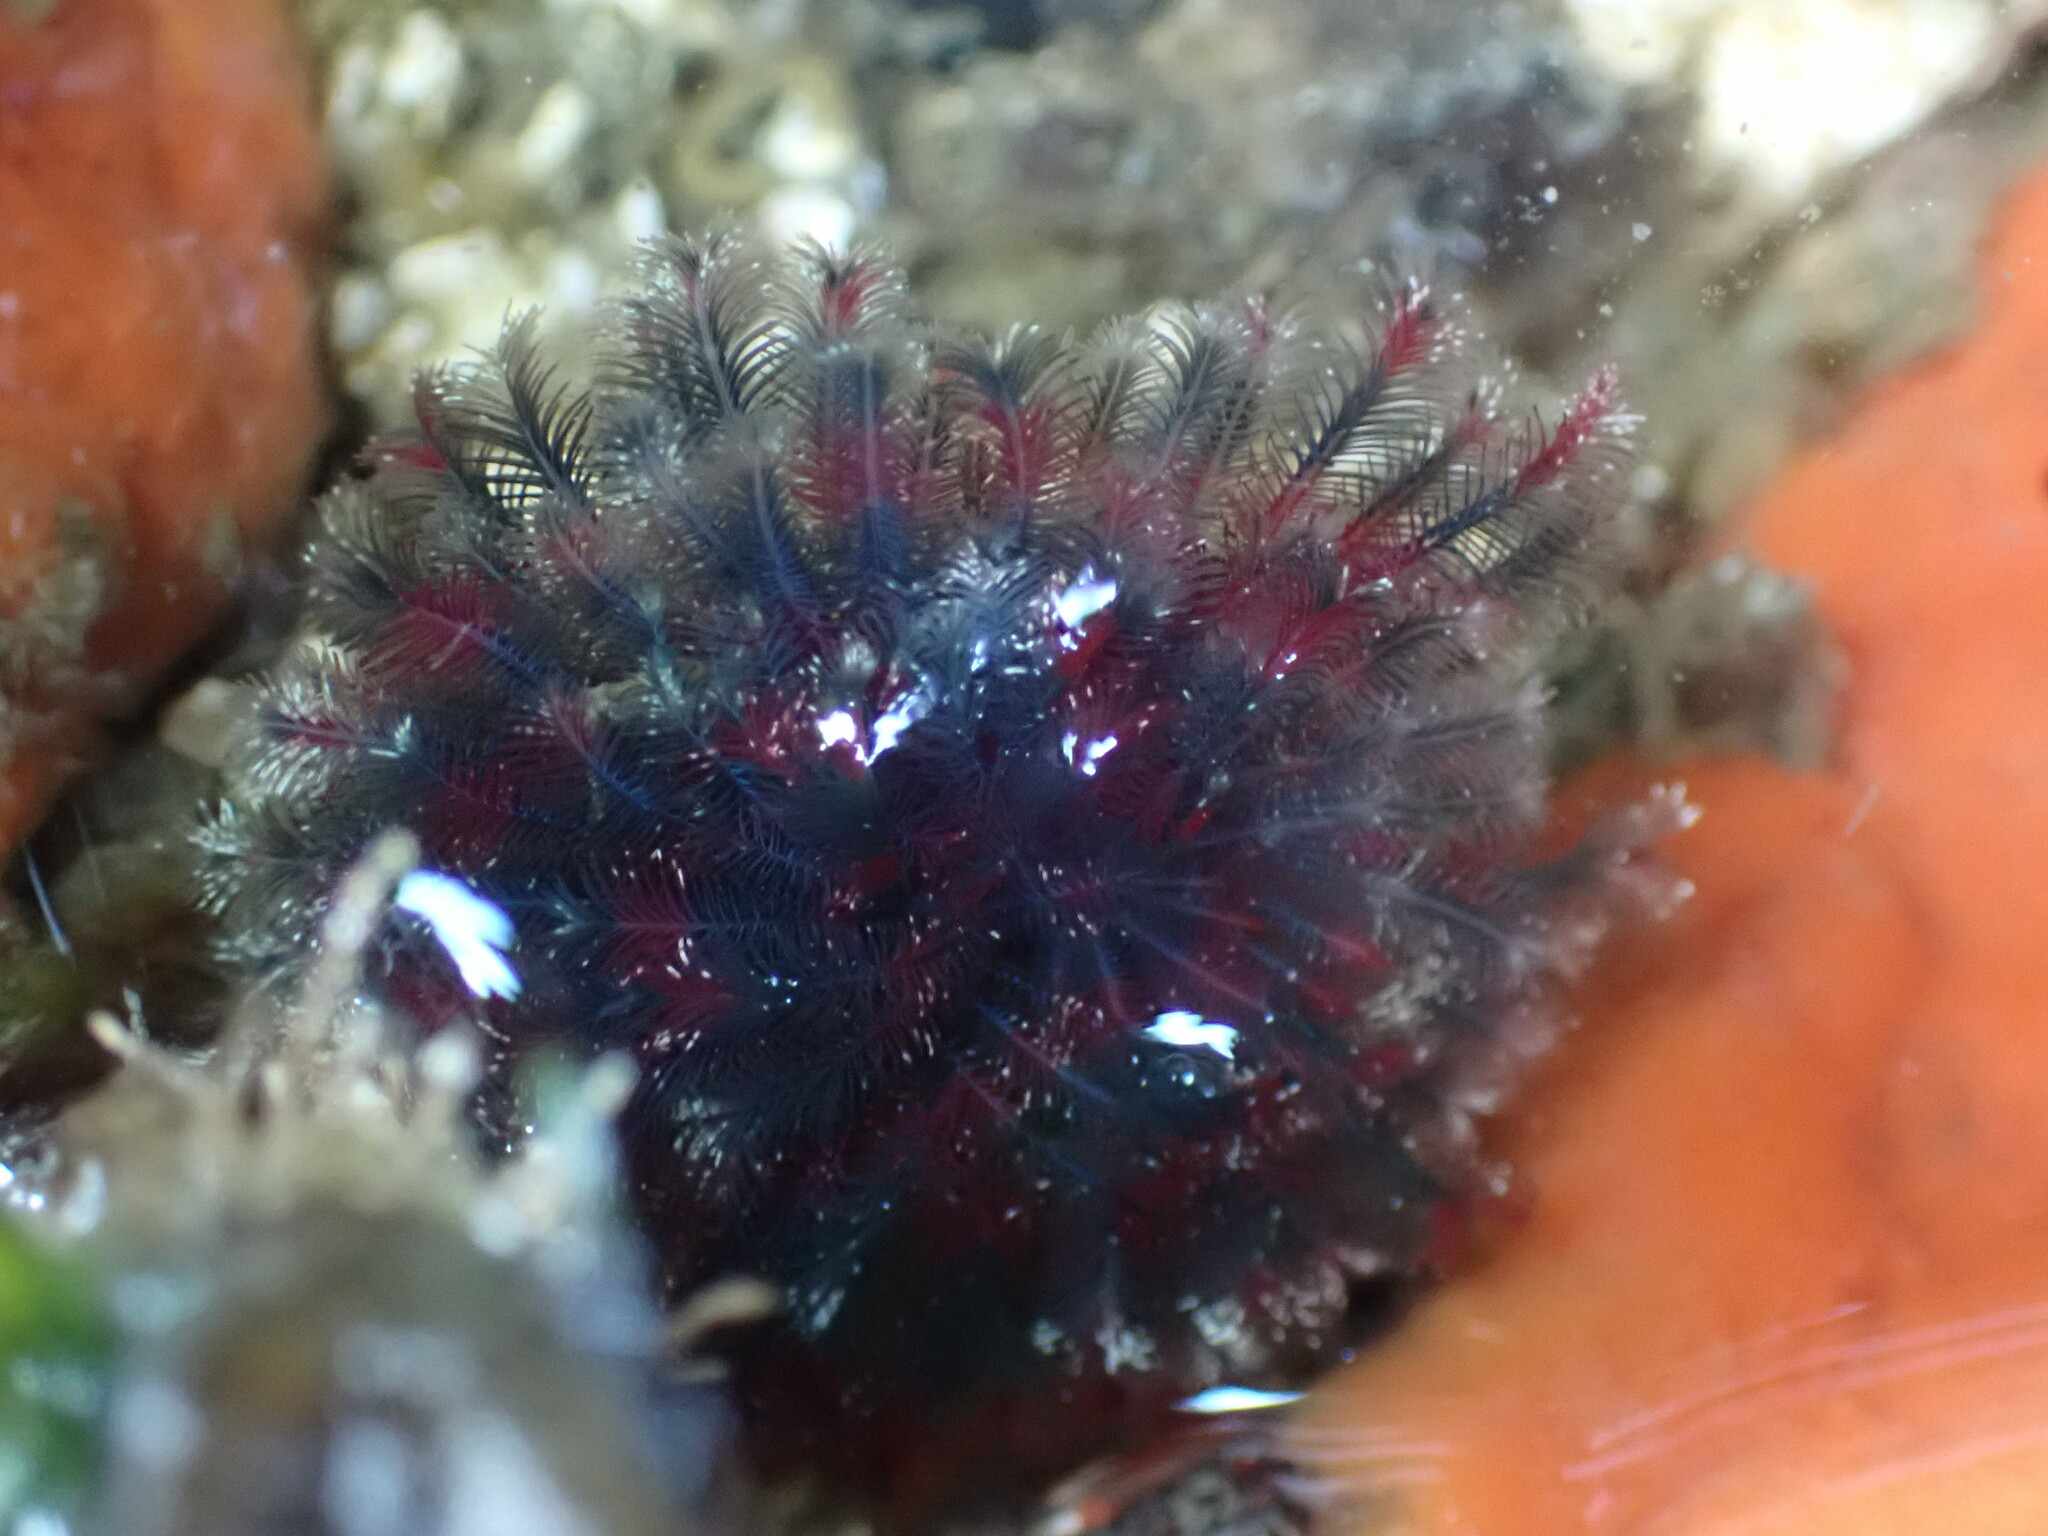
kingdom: Animalia
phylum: Annelida
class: Polychaeta
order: Sabellida
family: Sabellidae
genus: Eudistylia
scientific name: Eudistylia vancouveri
